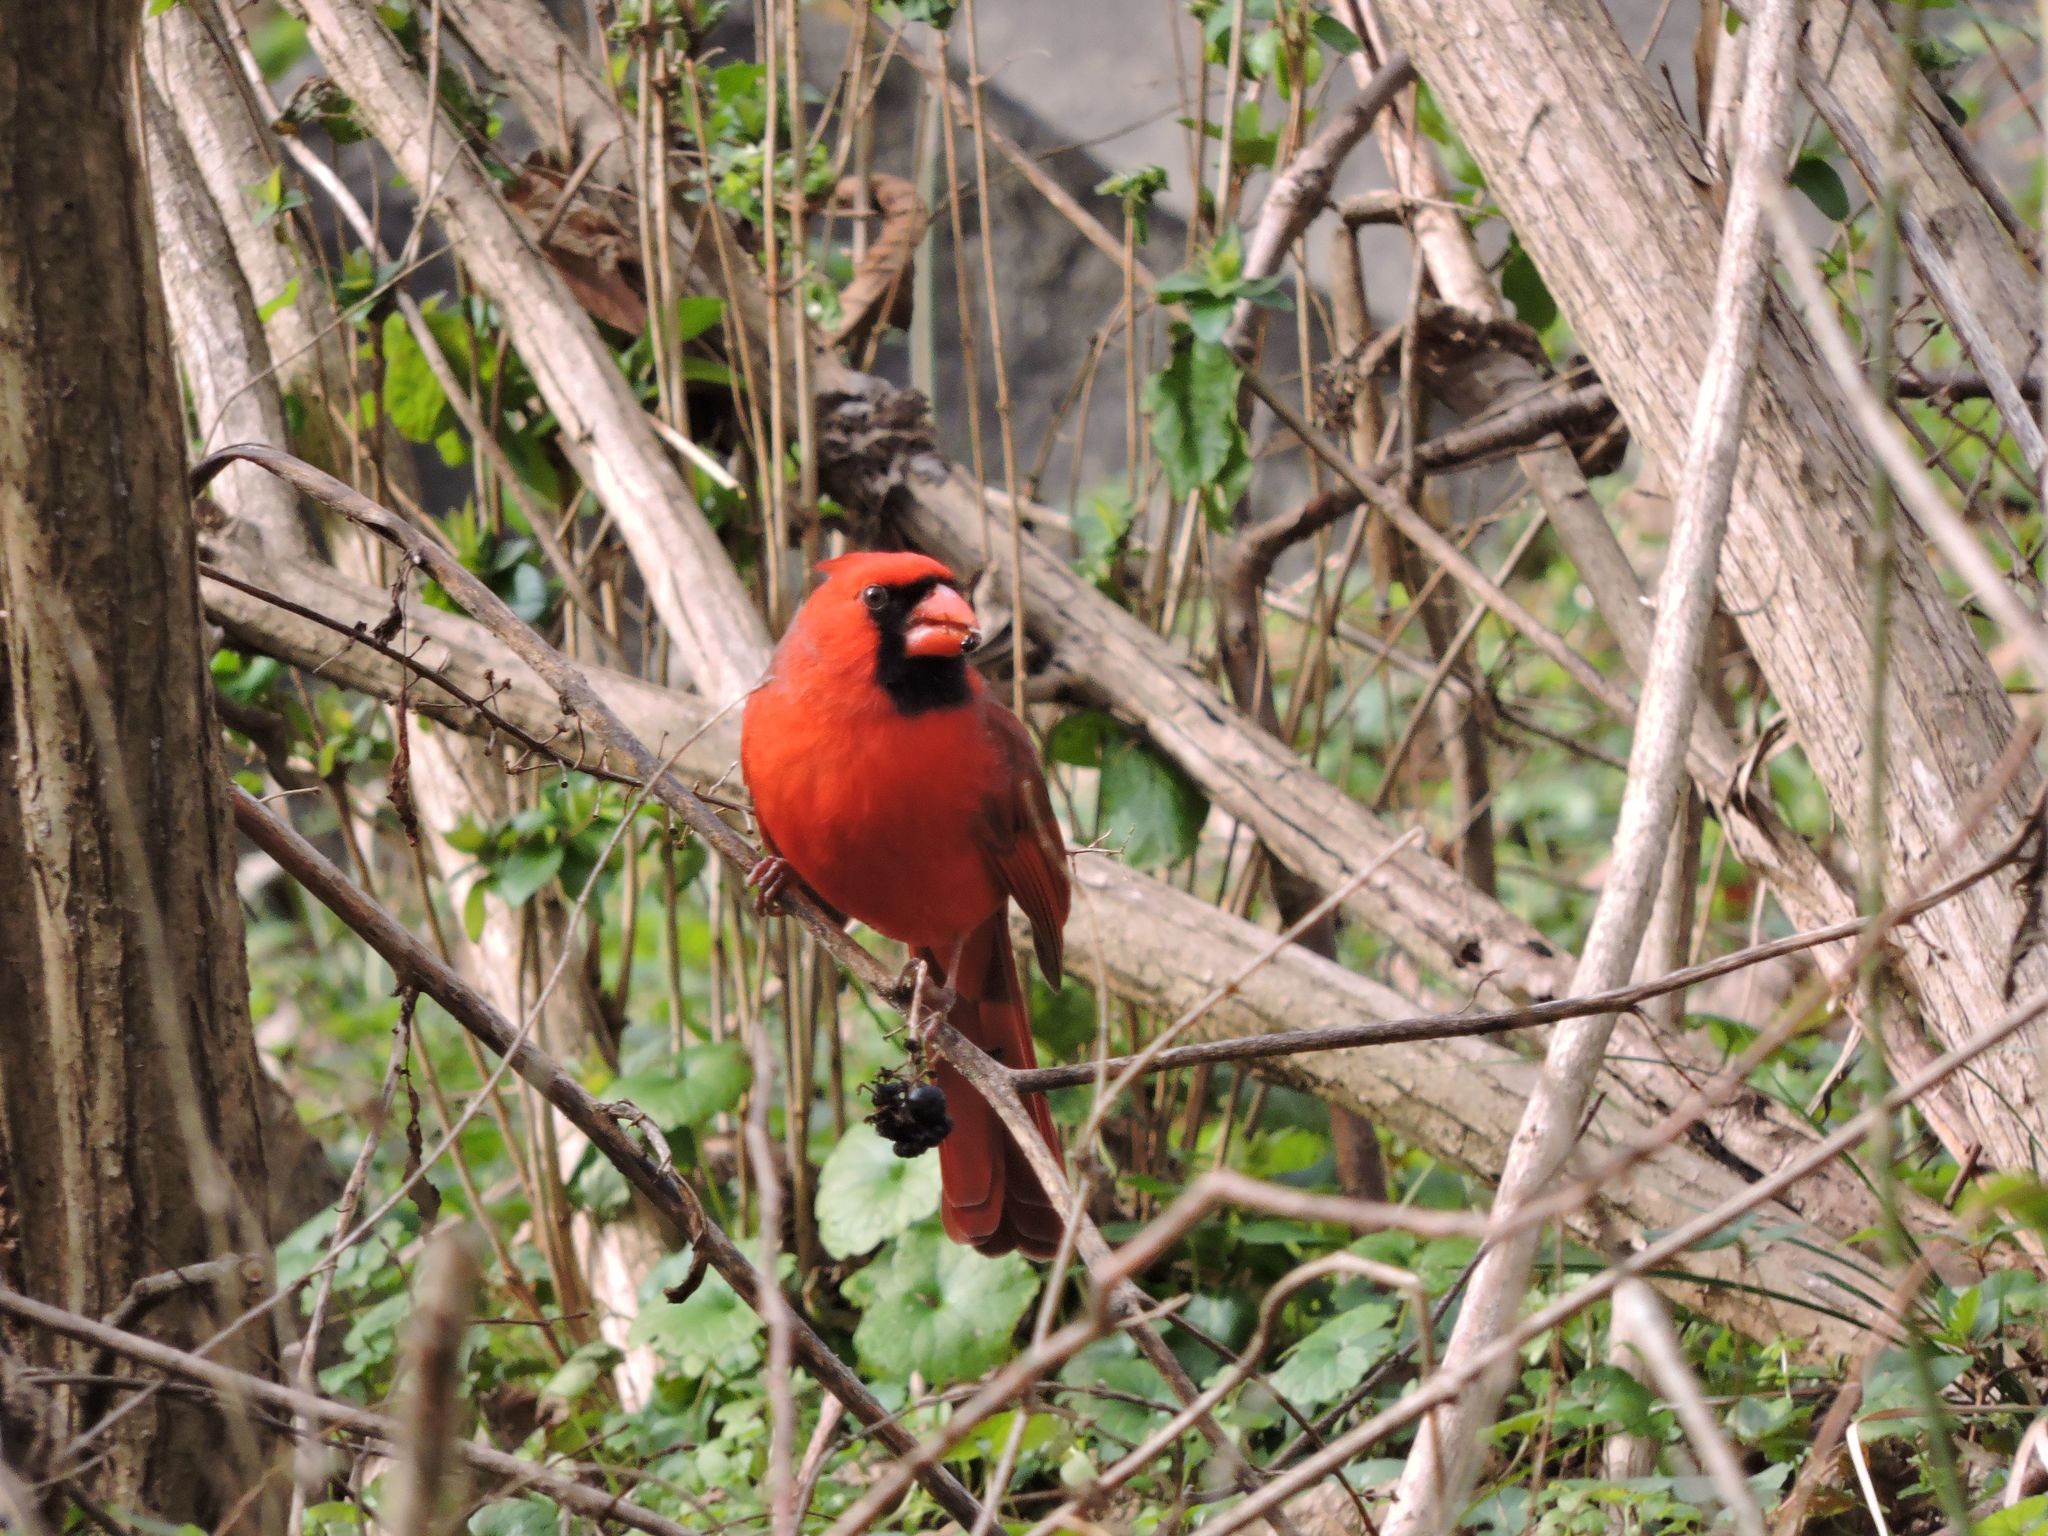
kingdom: Animalia
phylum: Chordata
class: Aves
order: Passeriformes
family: Cardinalidae
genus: Cardinalis
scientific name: Cardinalis cardinalis
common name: Northern cardinal
